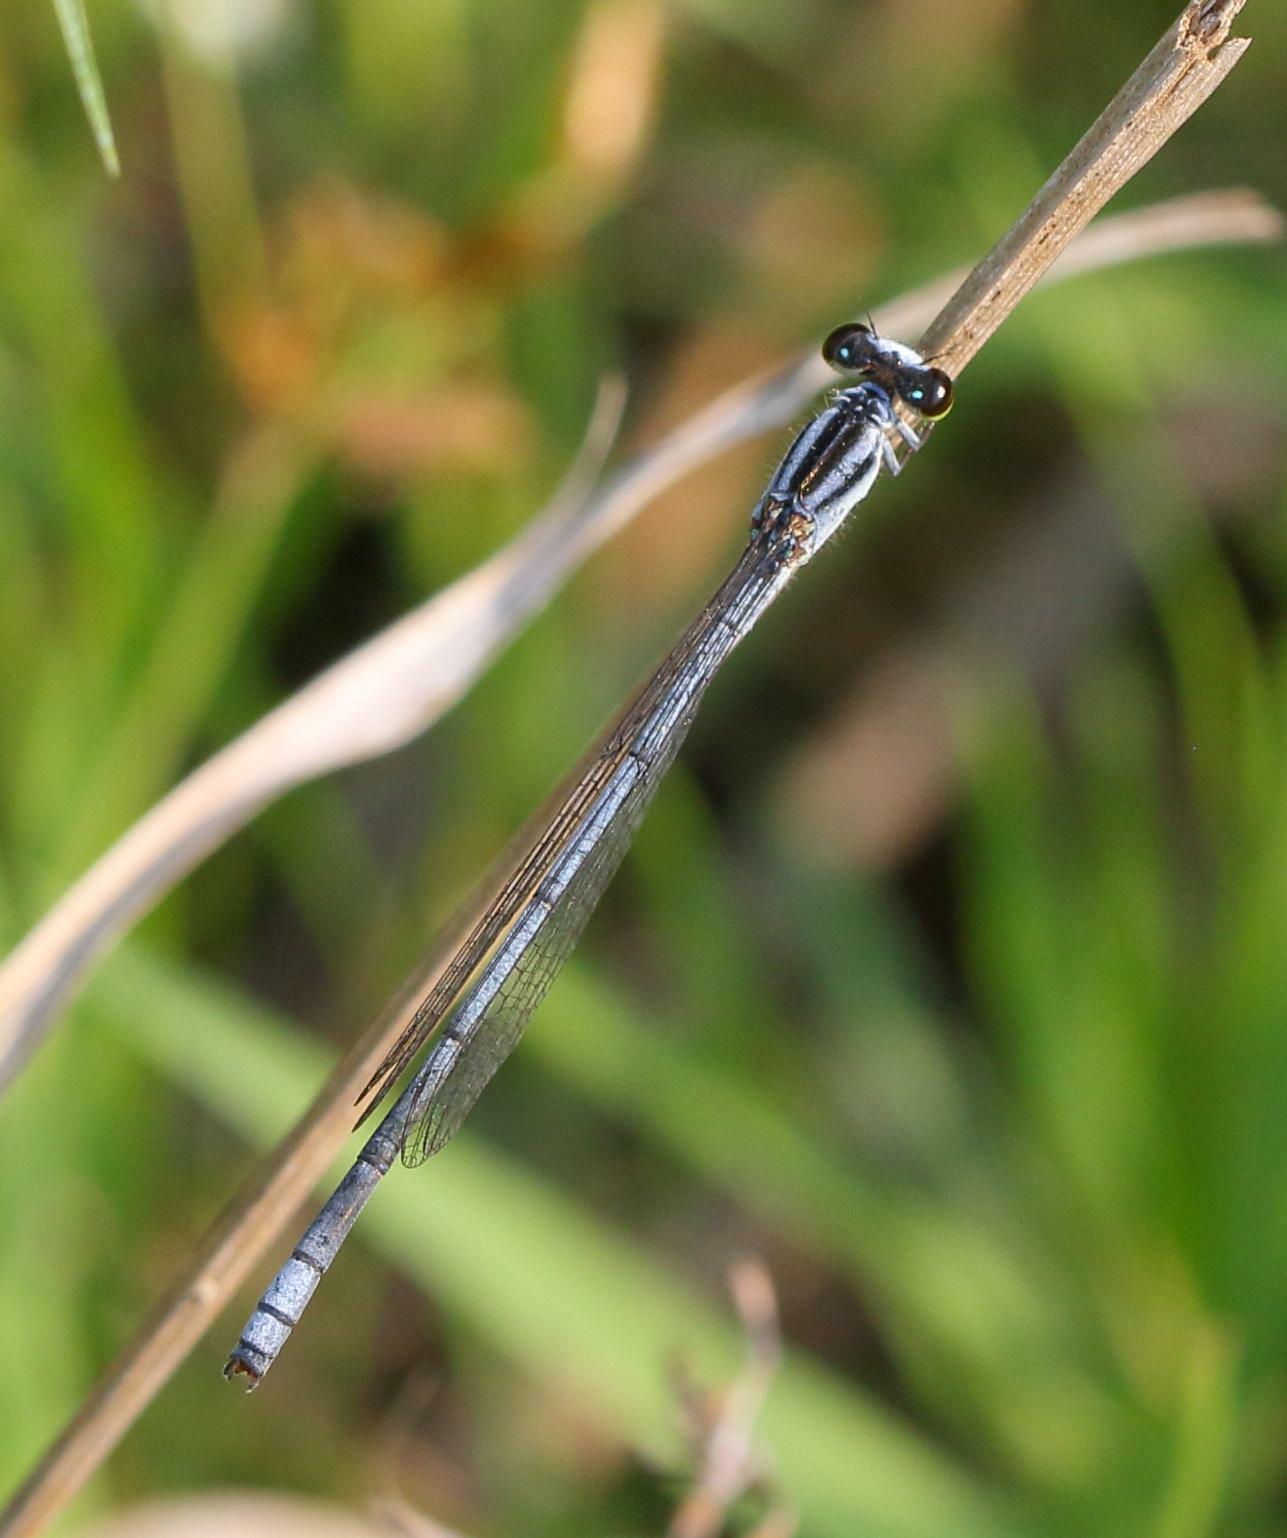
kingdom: Animalia
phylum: Arthropoda
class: Insecta
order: Odonata
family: Coenagrionidae
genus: Pseudagrion
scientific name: Pseudagrion kersteni
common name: Powder-faced sprite
